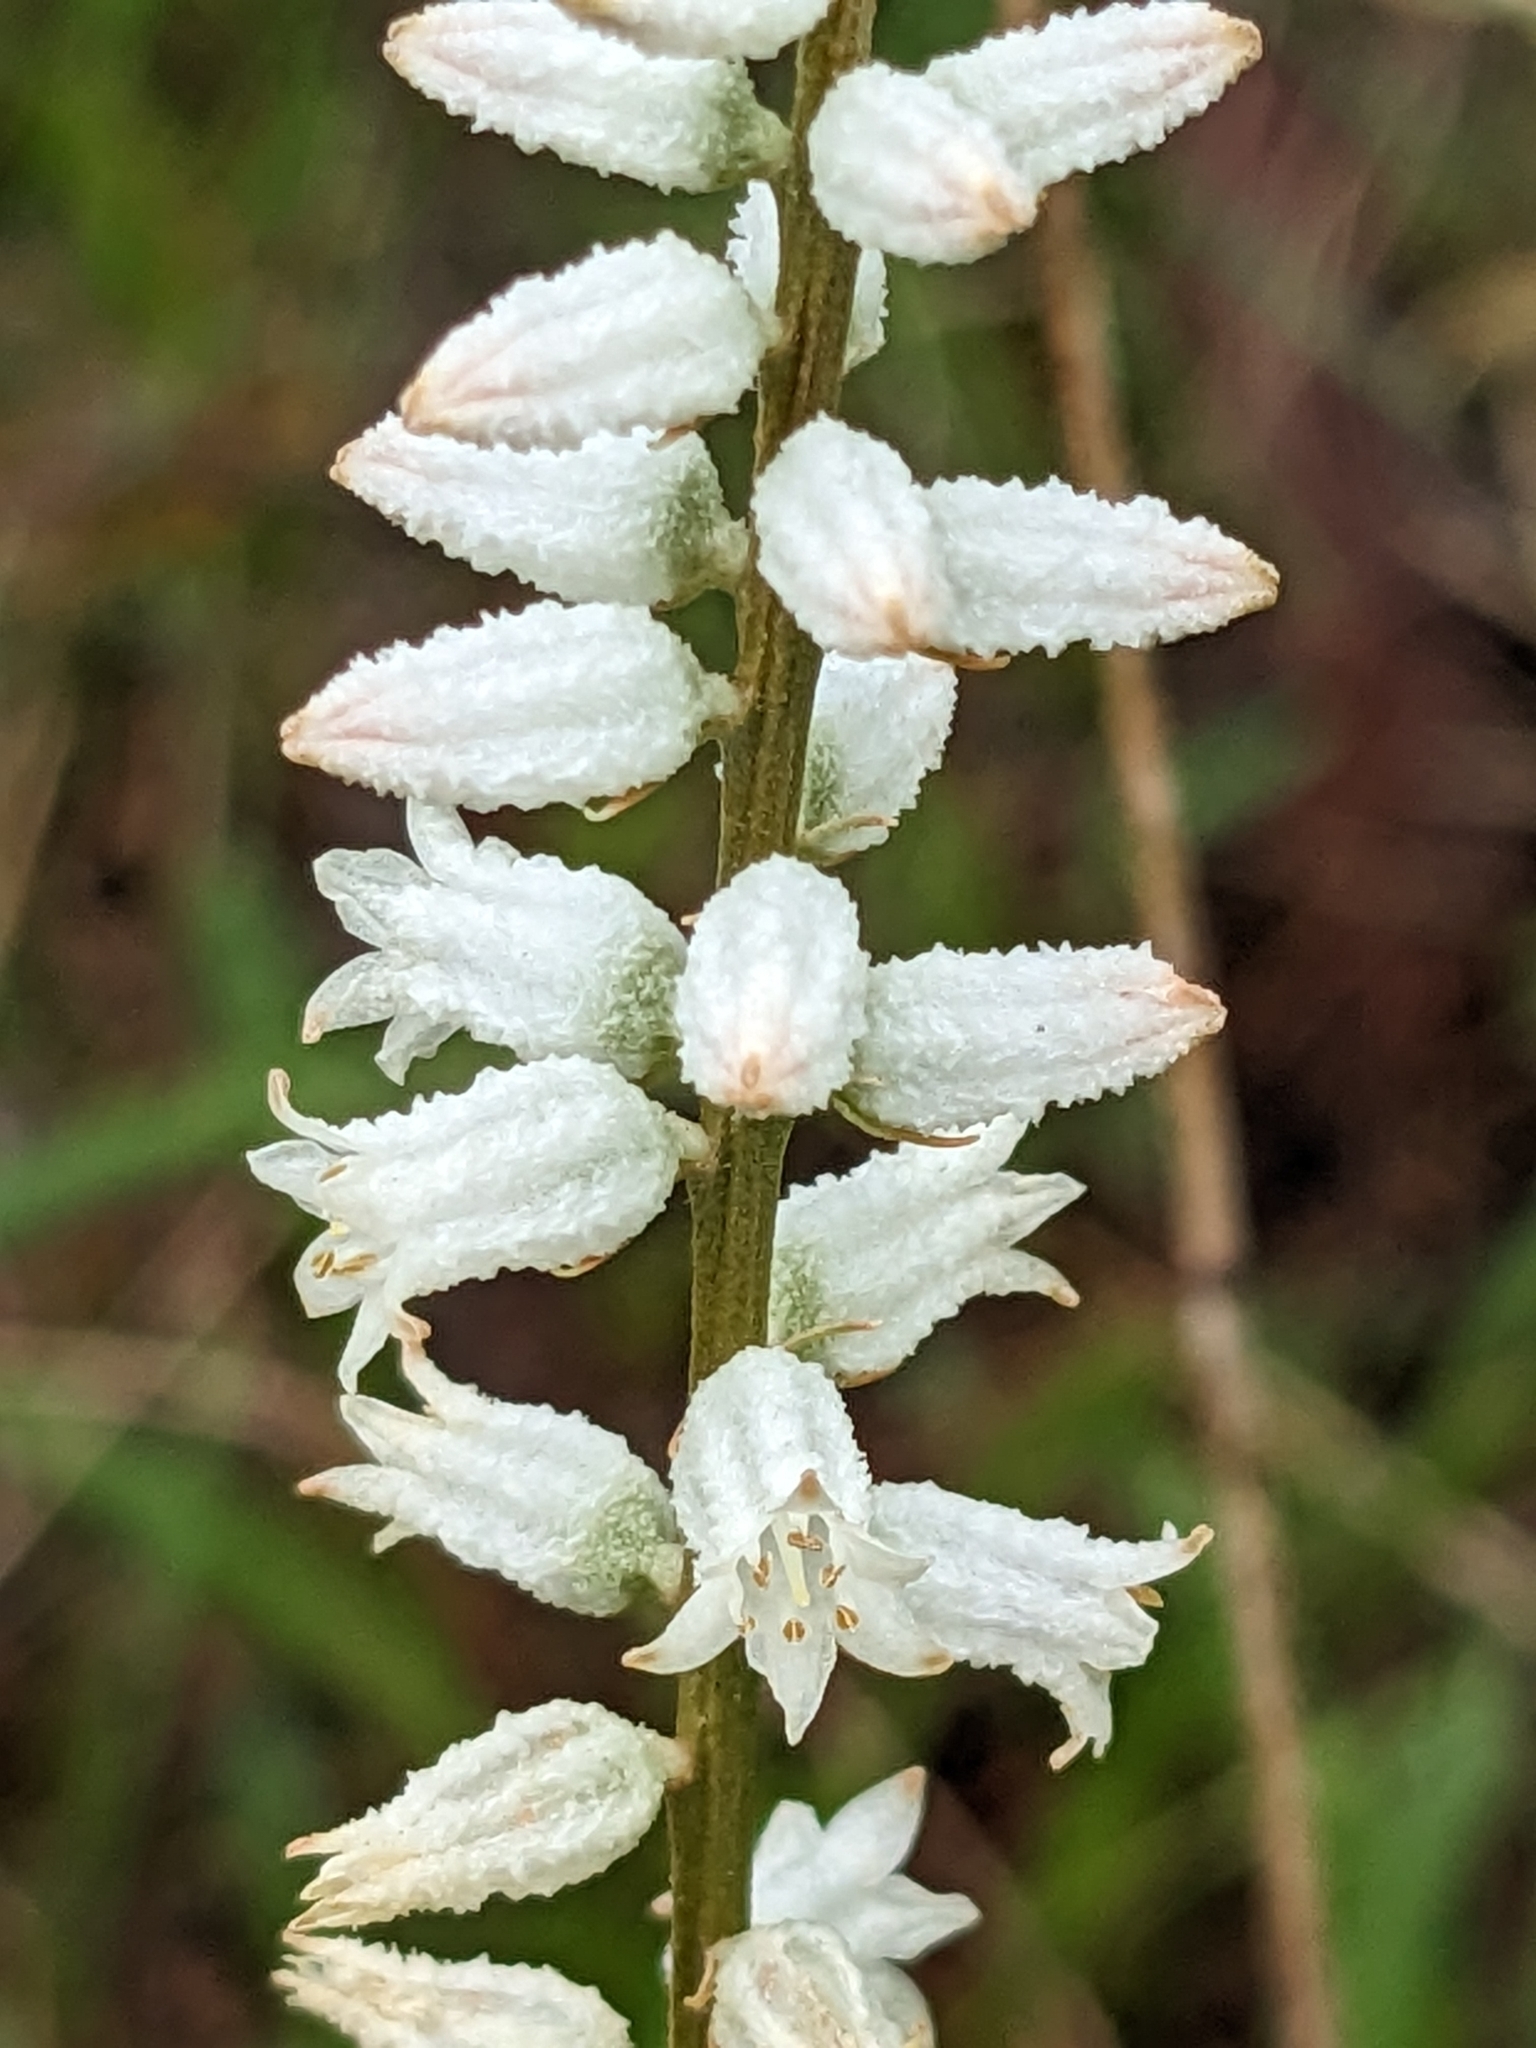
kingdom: Plantae
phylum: Tracheophyta
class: Liliopsida
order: Dioscoreales
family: Nartheciaceae
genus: Aletris
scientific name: Aletris farinosa
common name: Colicroot
